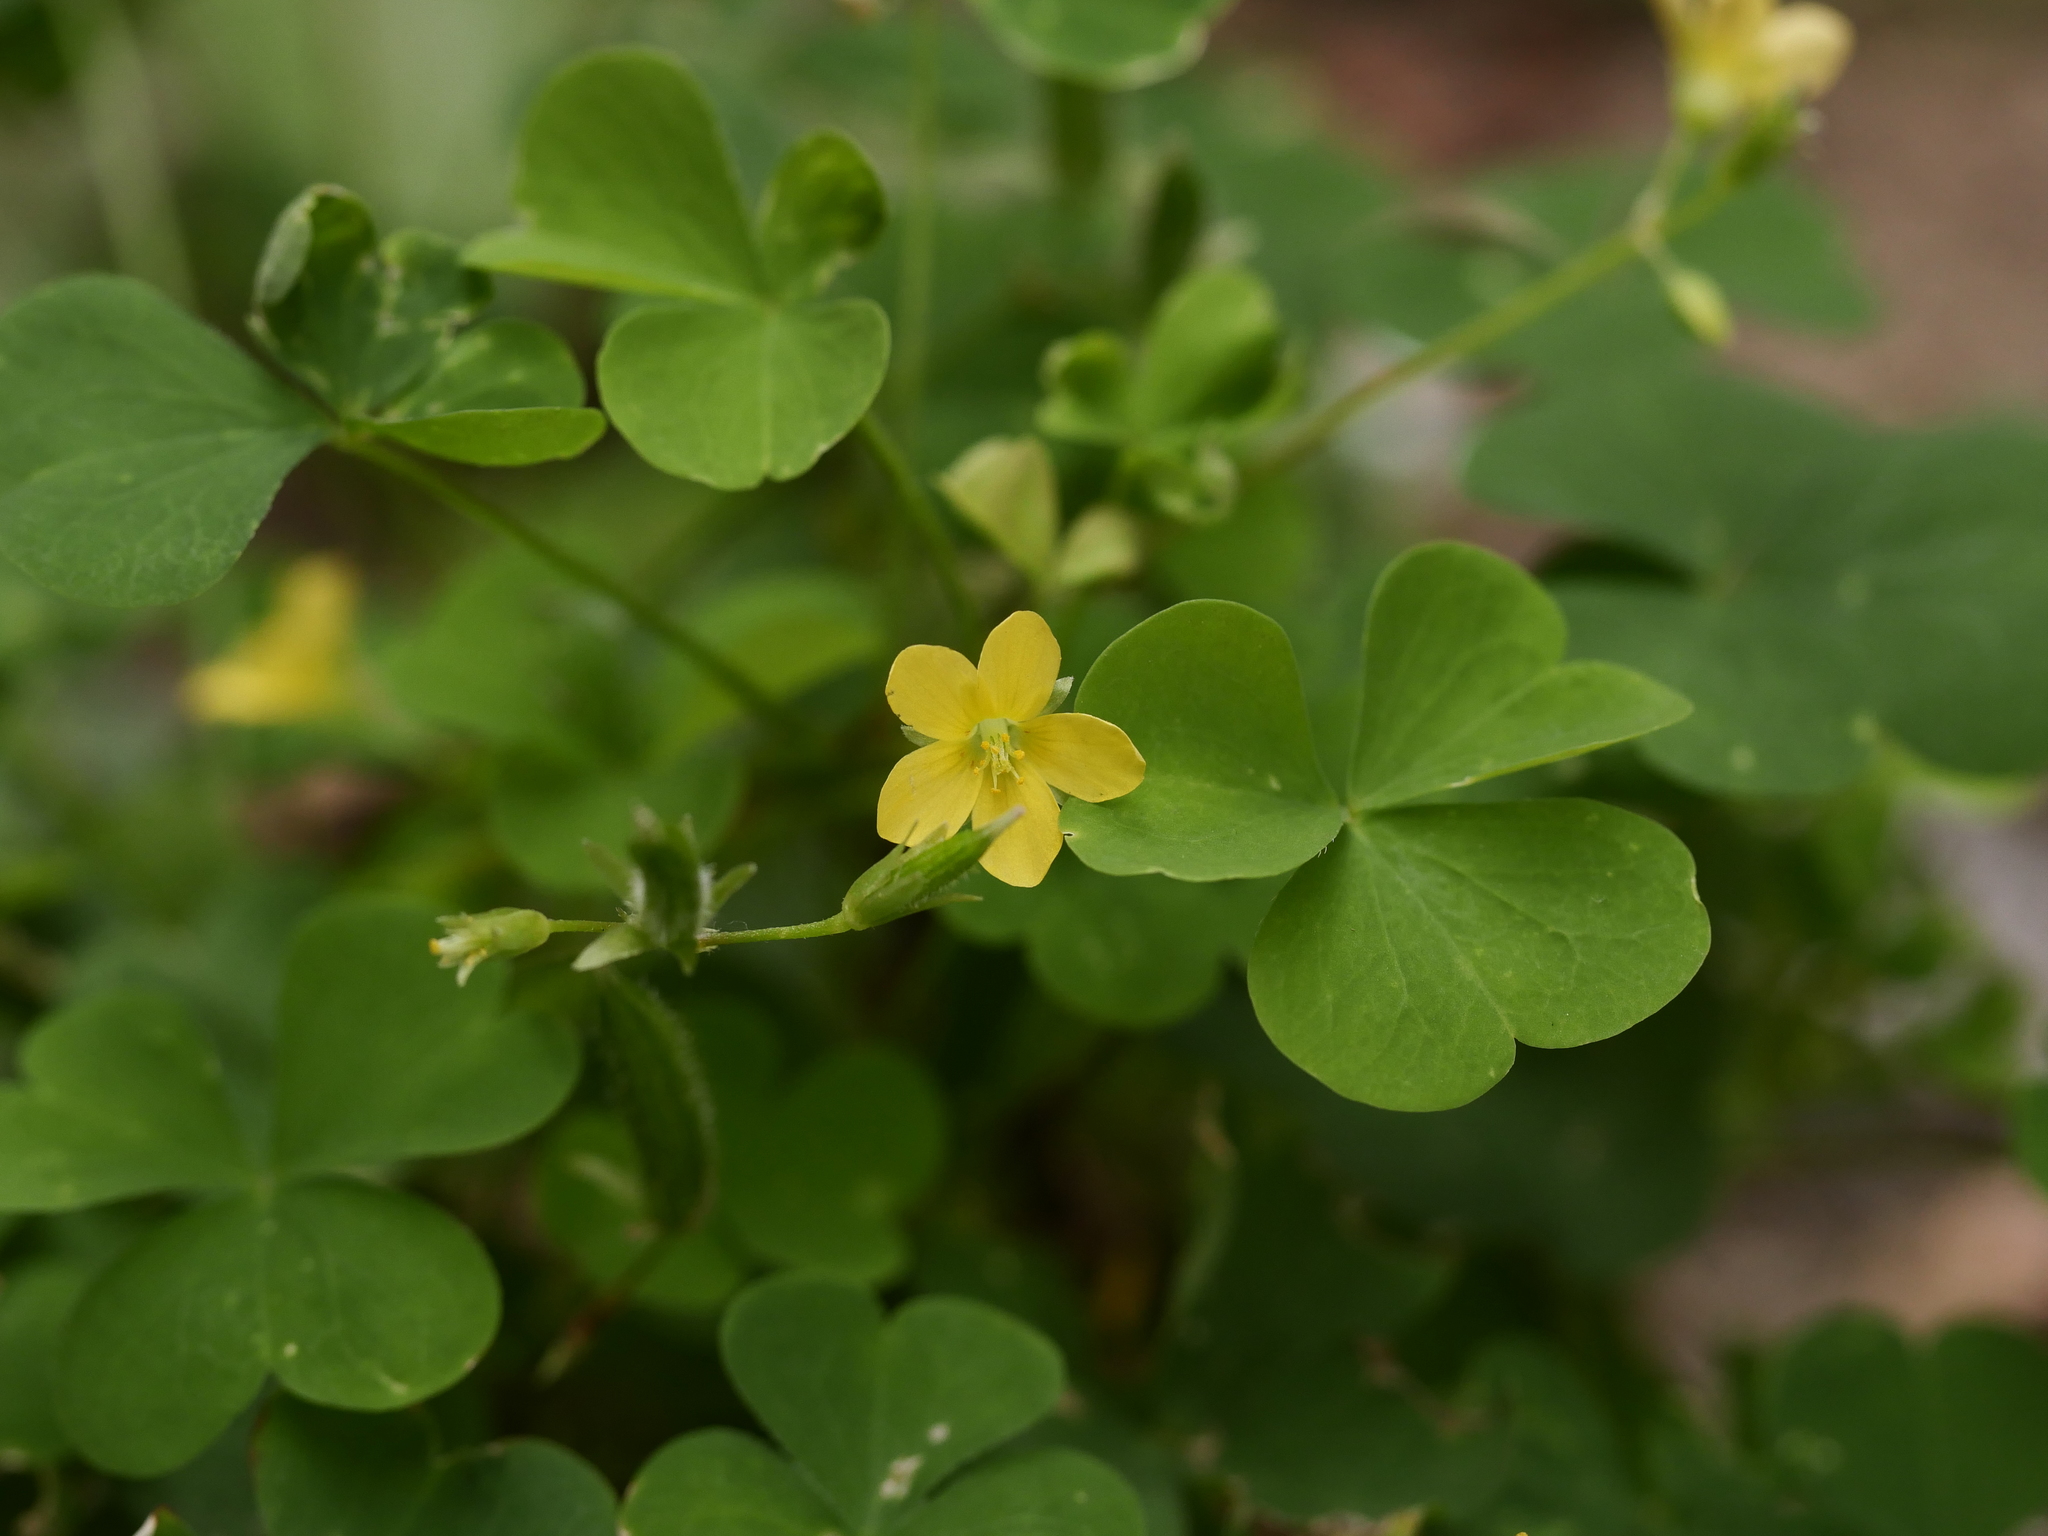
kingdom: Plantae
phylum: Tracheophyta
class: Magnoliopsida
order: Oxalidales
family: Oxalidaceae
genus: Oxalis
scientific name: Oxalis corniculata
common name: Procumbent yellow-sorrel
